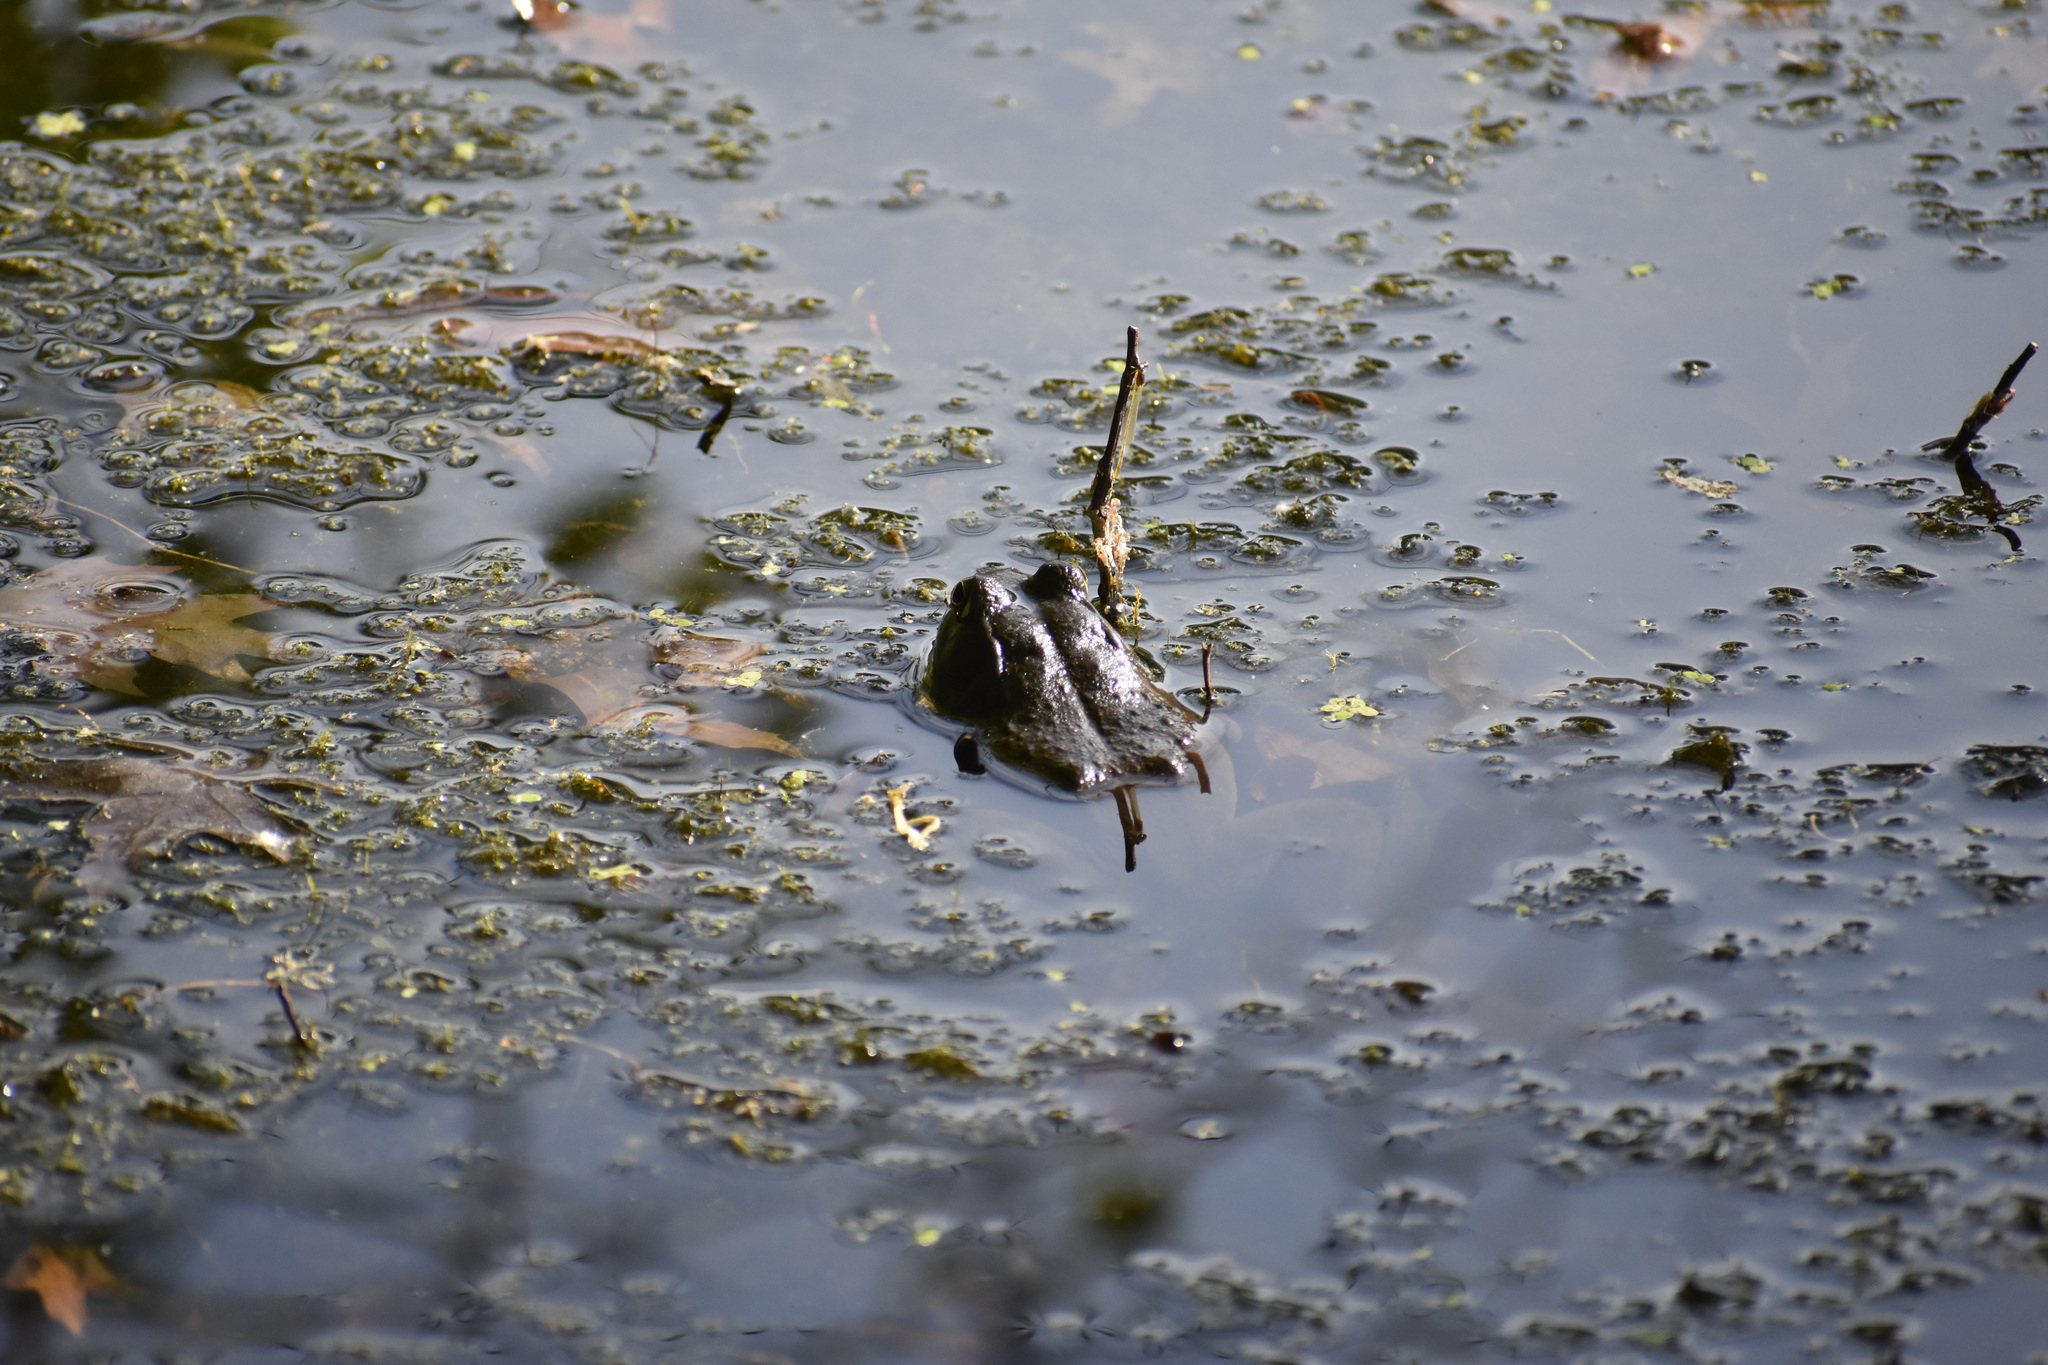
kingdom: Animalia
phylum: Chordata
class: Amphibia
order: Anura
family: Ranidae
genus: Lithobates
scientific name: Lithobates catesbeianus
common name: American bullfrog
